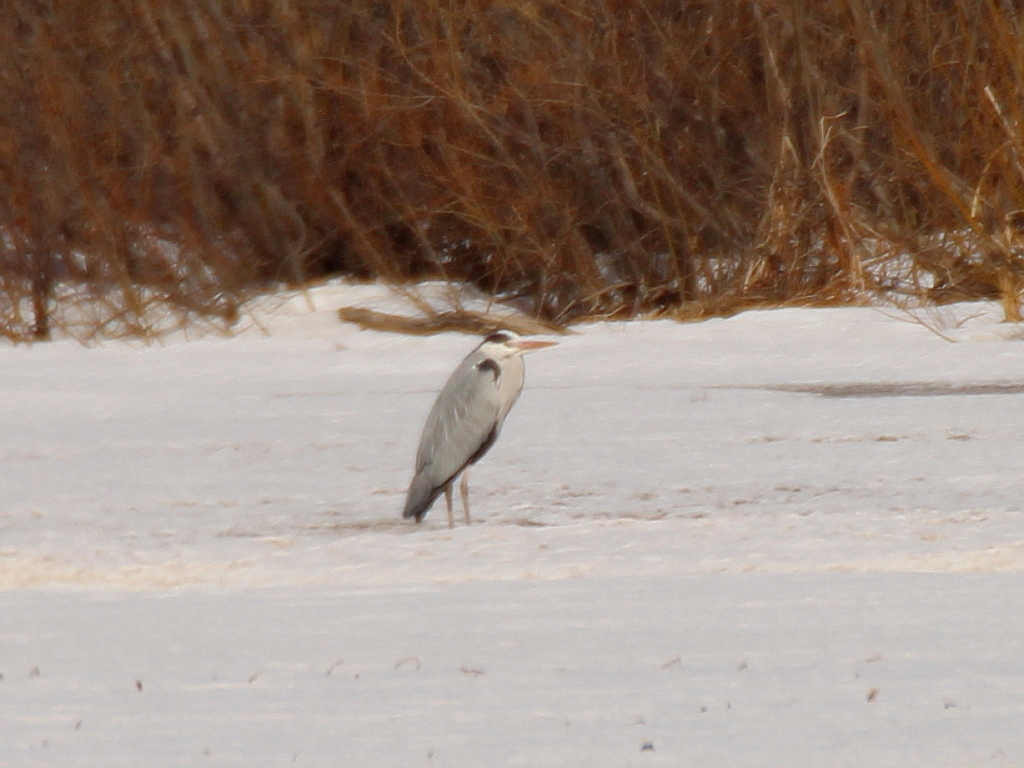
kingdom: Animalia
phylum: Chordata
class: Aves
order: Pelecaniformes
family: Ardeidae
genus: Ardea
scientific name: Ardea cinerea
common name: Grey heron
